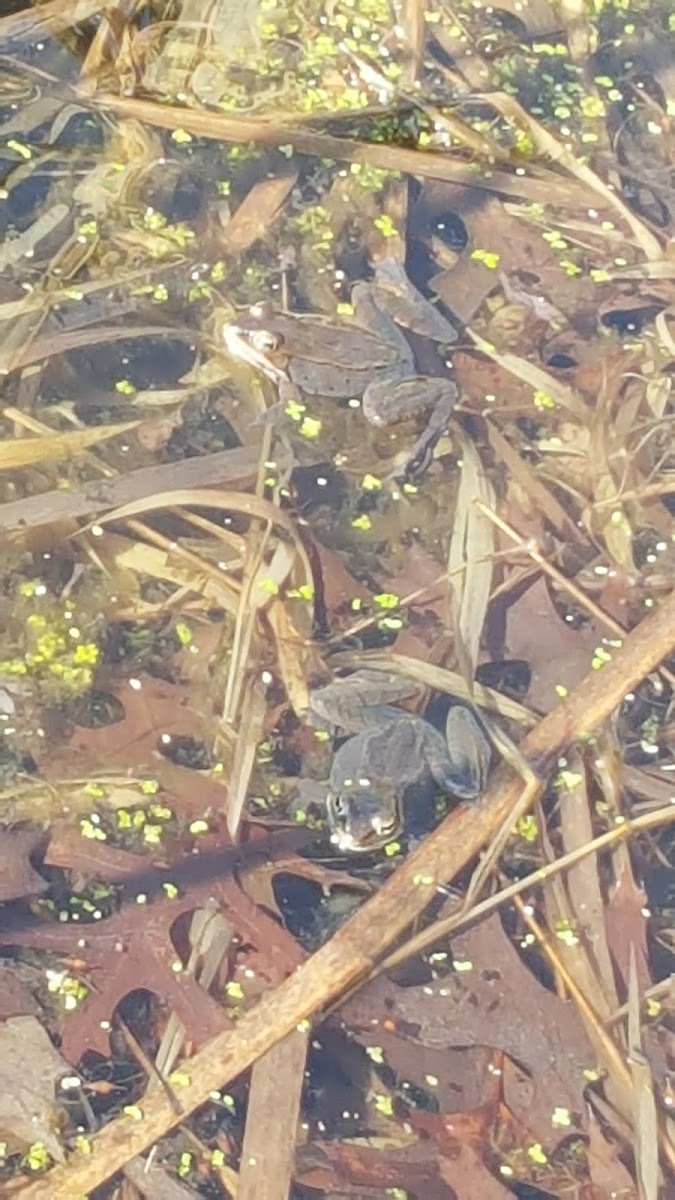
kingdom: Animalia
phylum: Chordata
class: Amphibia
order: Anura
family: Ranidae
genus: Lithobates
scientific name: Lithobates sylvaticus
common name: Wood frog
